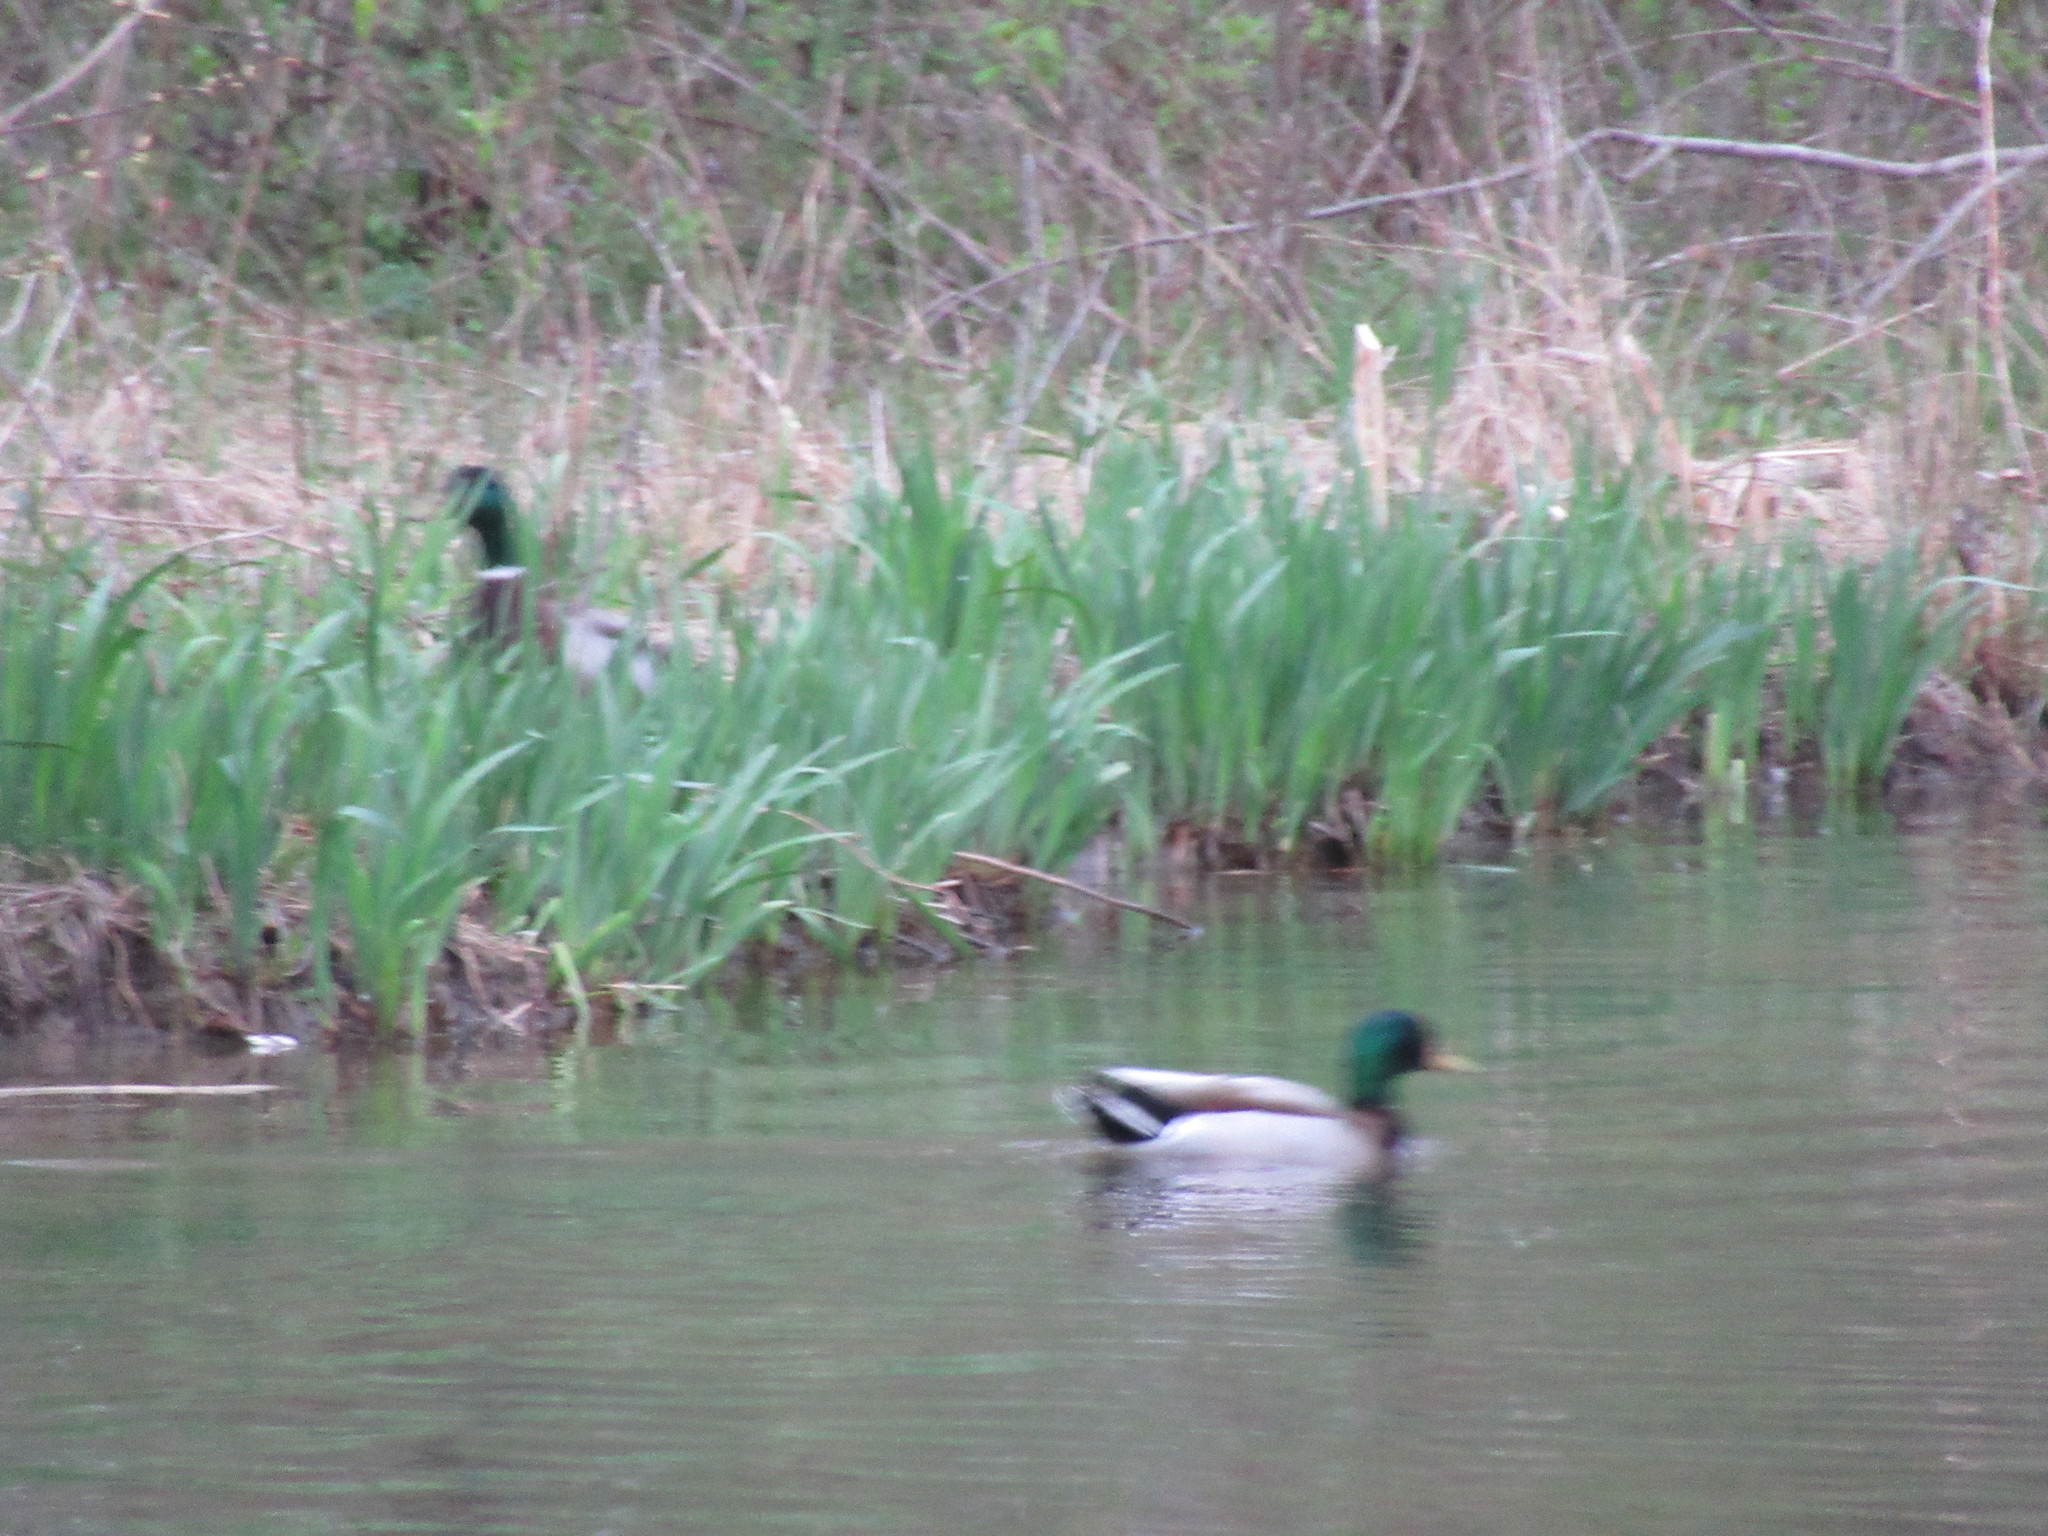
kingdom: Animalia
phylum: Chordata
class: Aves
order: Anseriformes
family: Anatidae
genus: Anas
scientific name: Anas platyrhynchos
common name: Mallard
